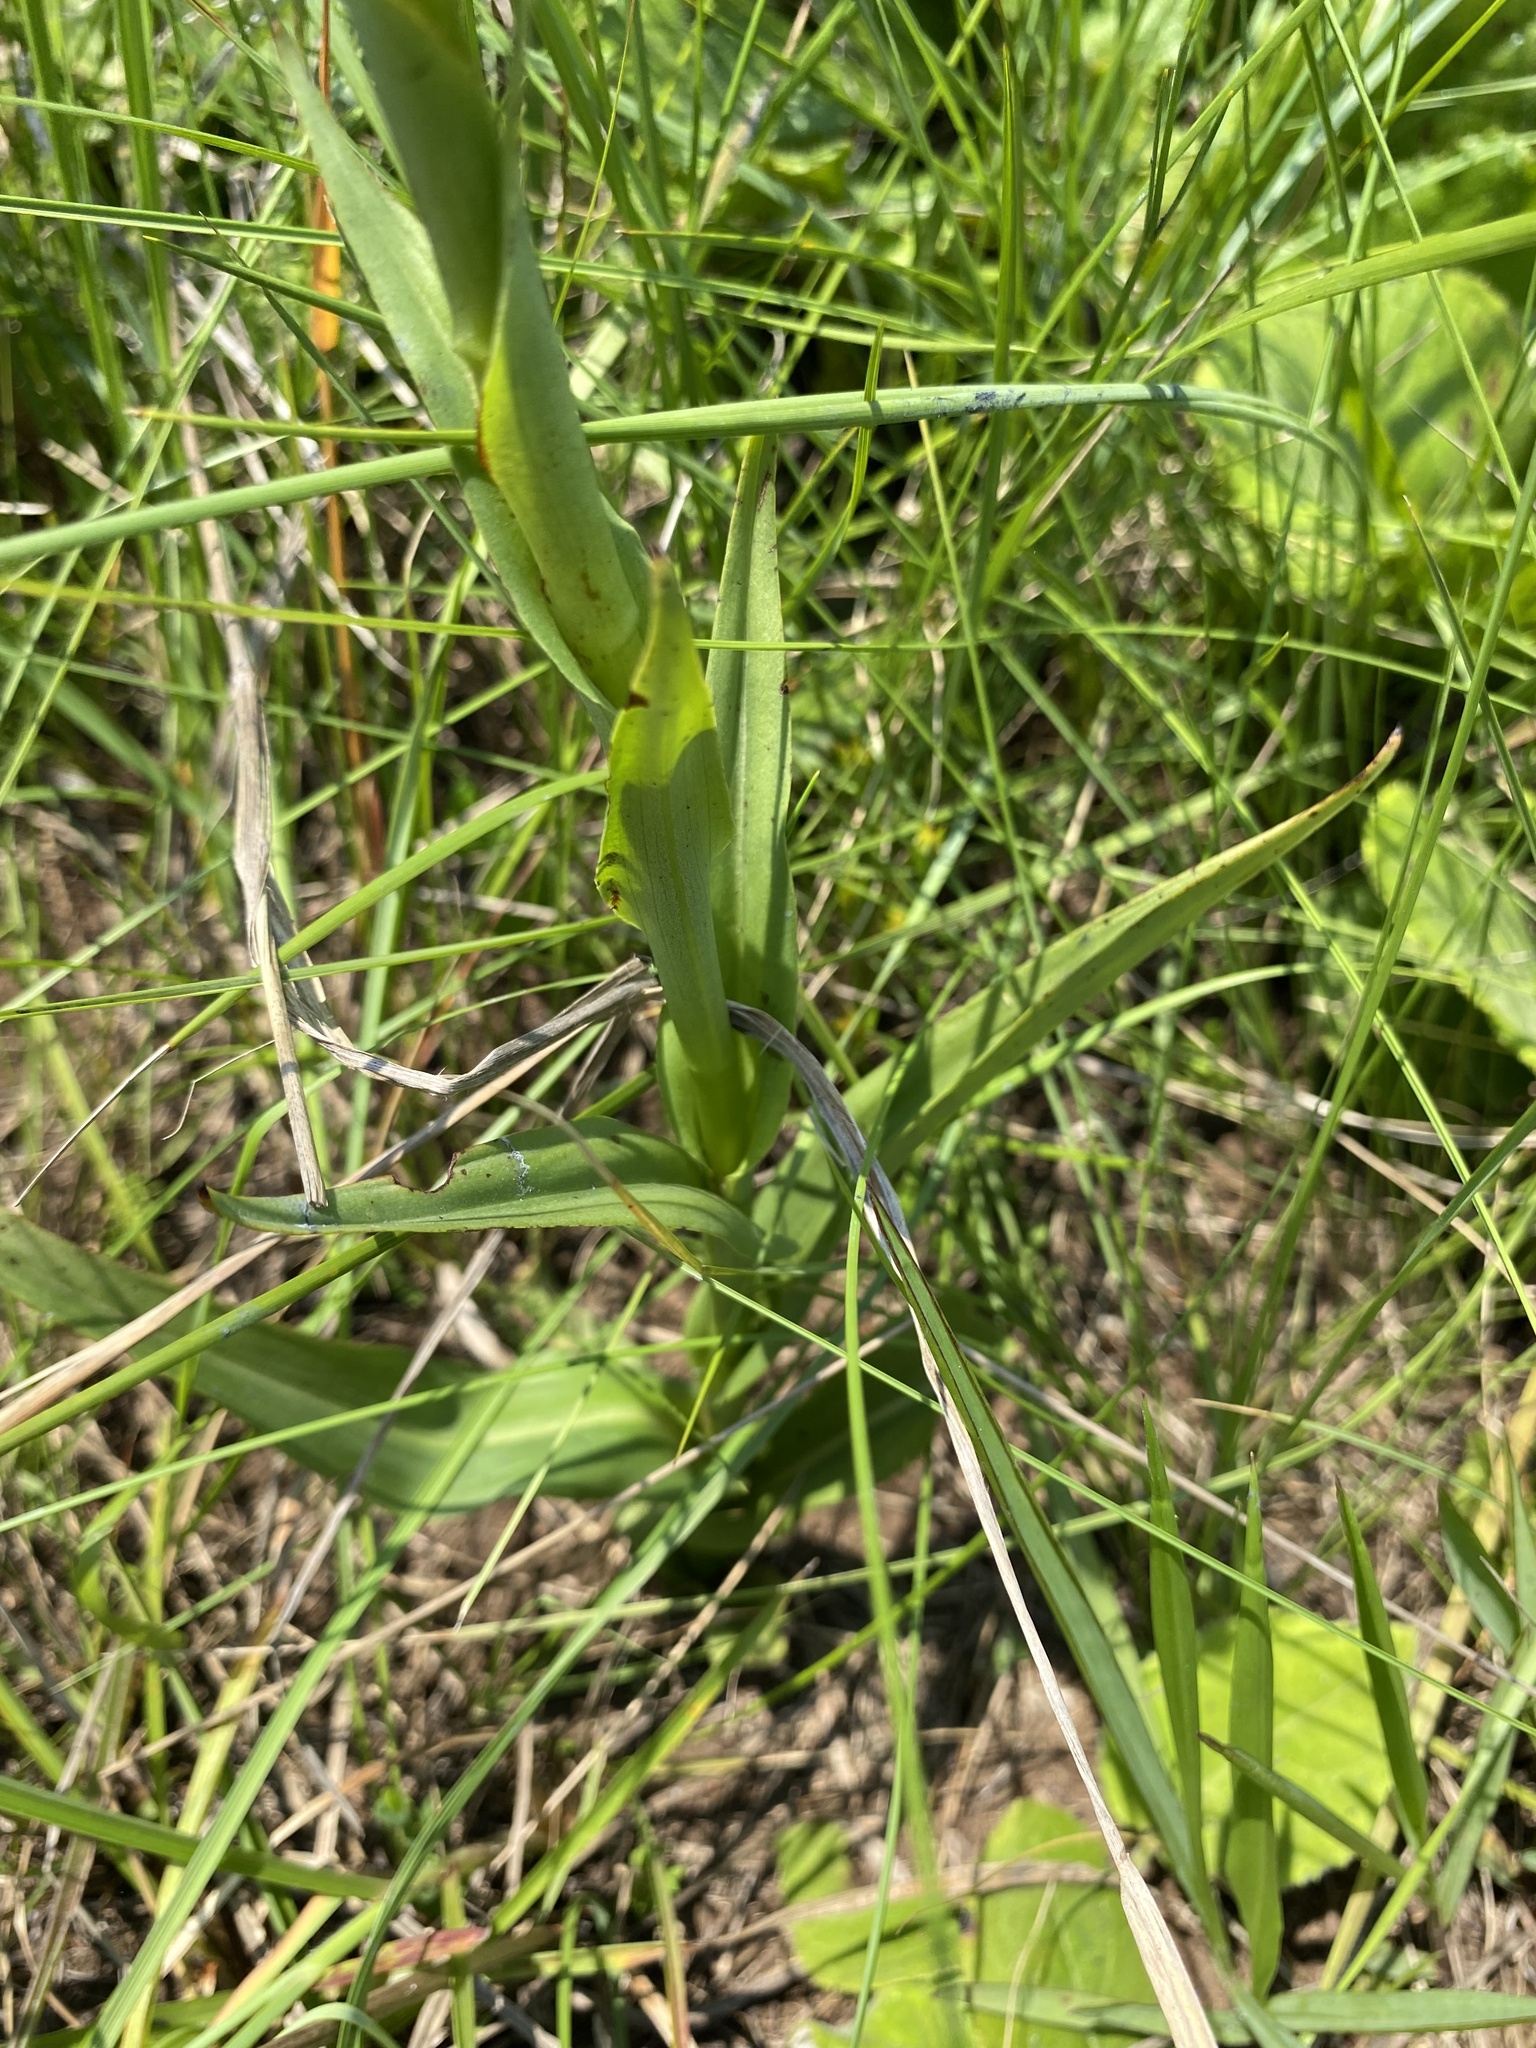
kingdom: Plantae
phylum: Tracheophyta
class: Liliopsida
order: Asparagales
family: Orchidaceae
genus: Disa
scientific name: Disa brevicornis
